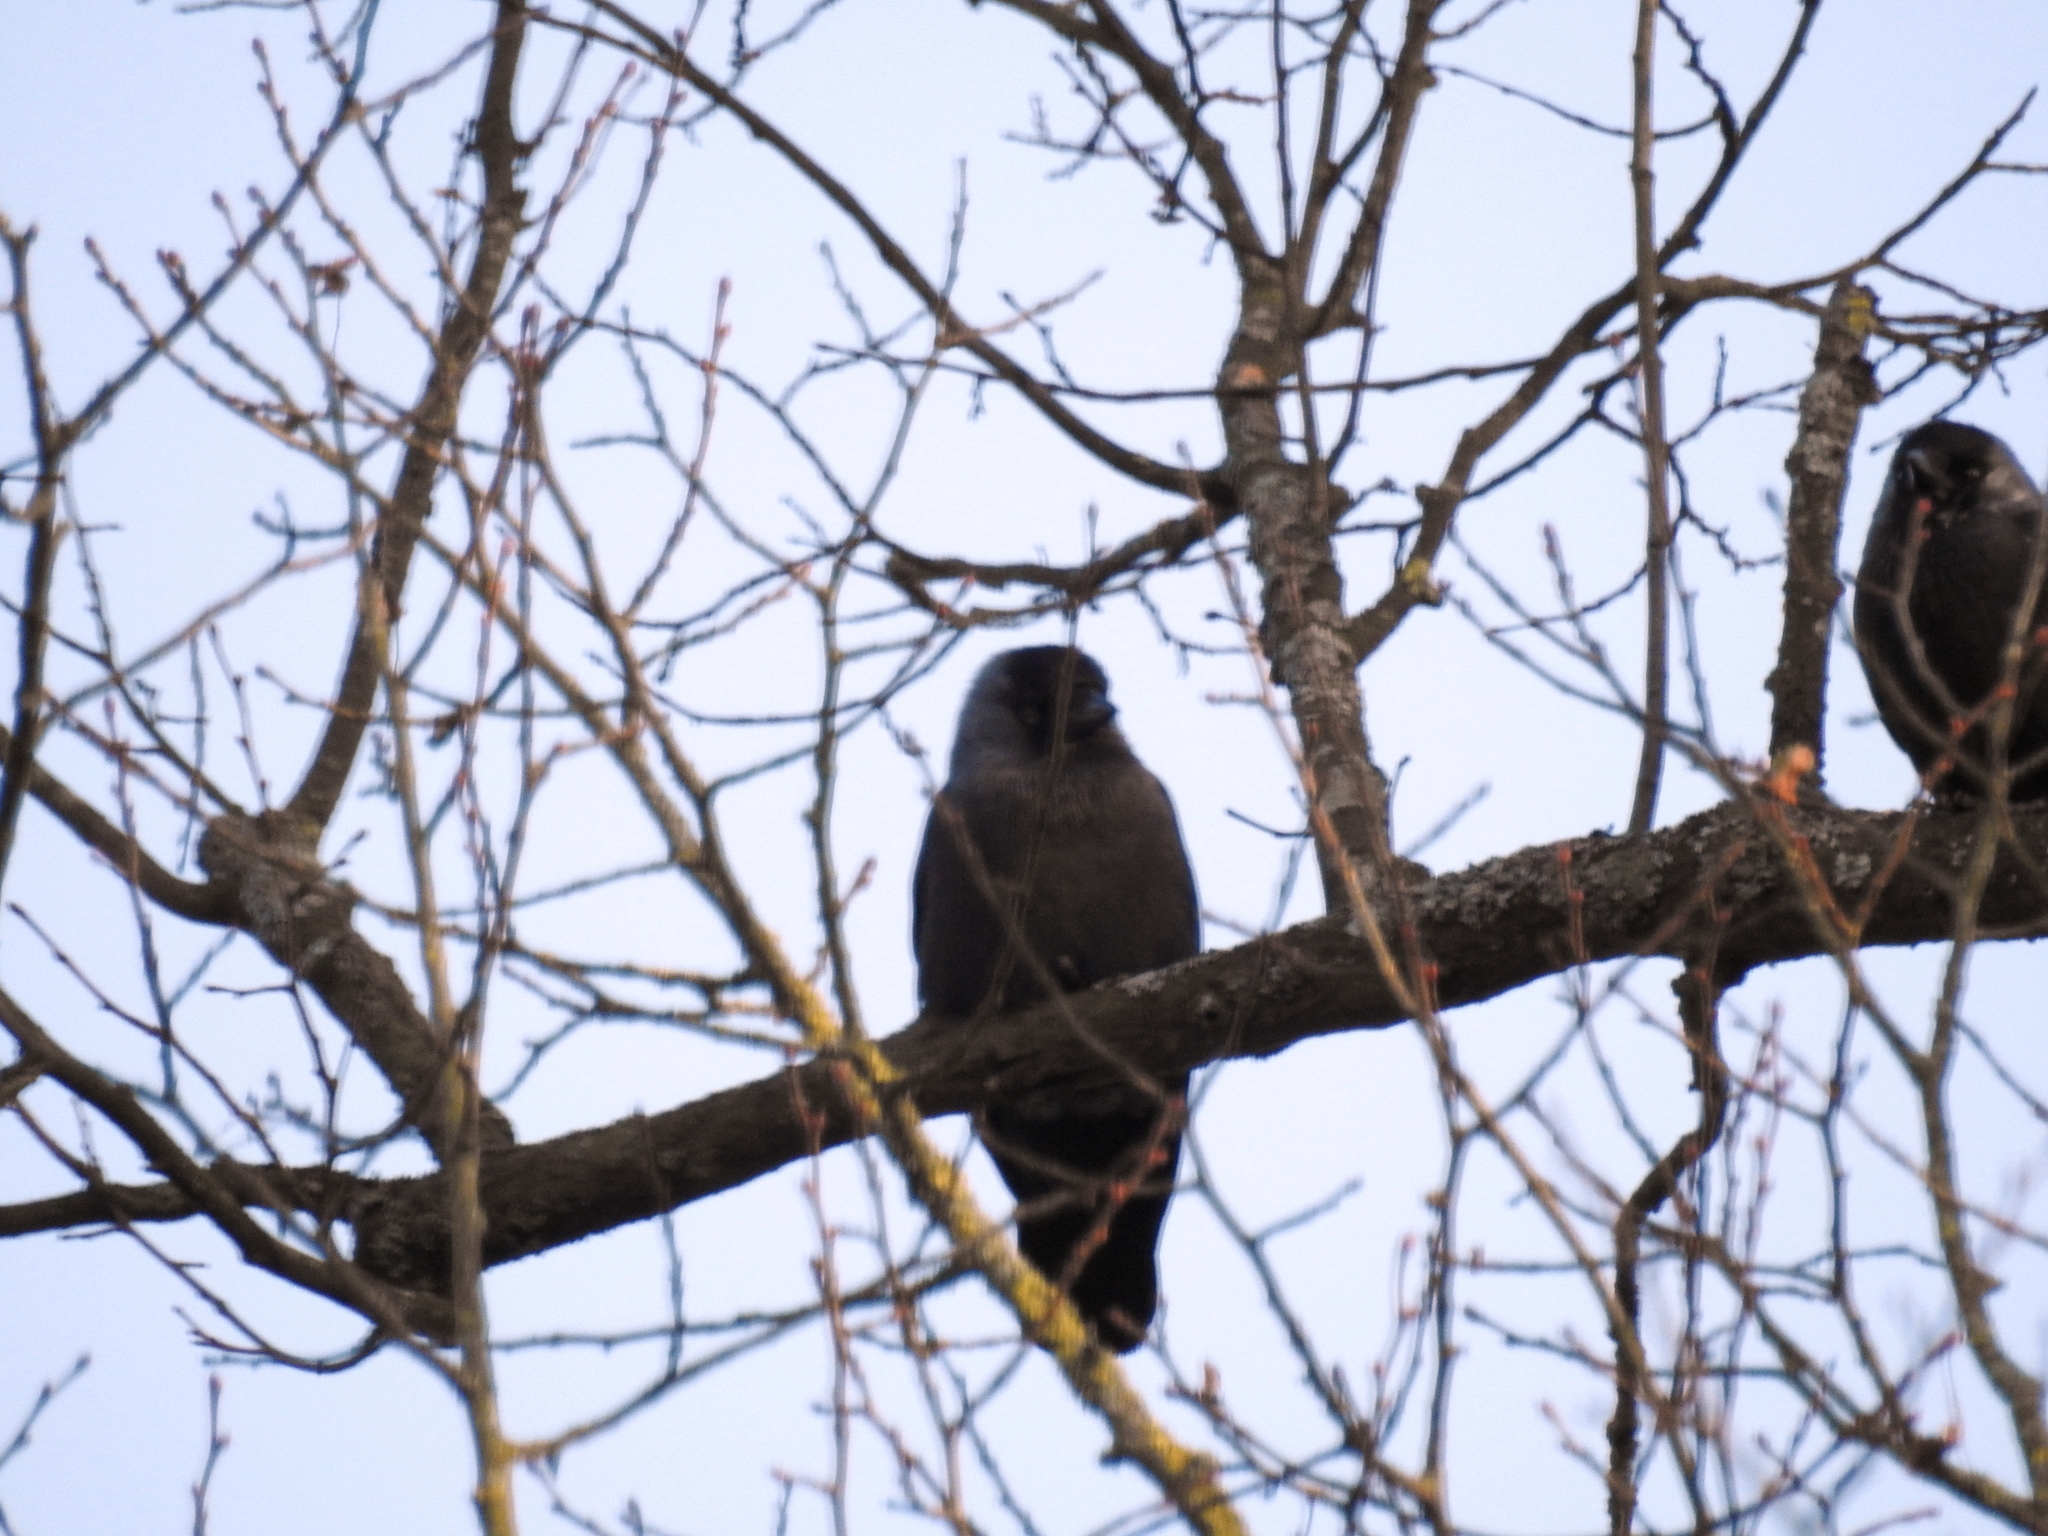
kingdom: Animalia
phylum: Chordata
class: Aves
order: Passeriformes
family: Corvidae
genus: Coloeus
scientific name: Coloeus monedula
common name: Western jackdaw
